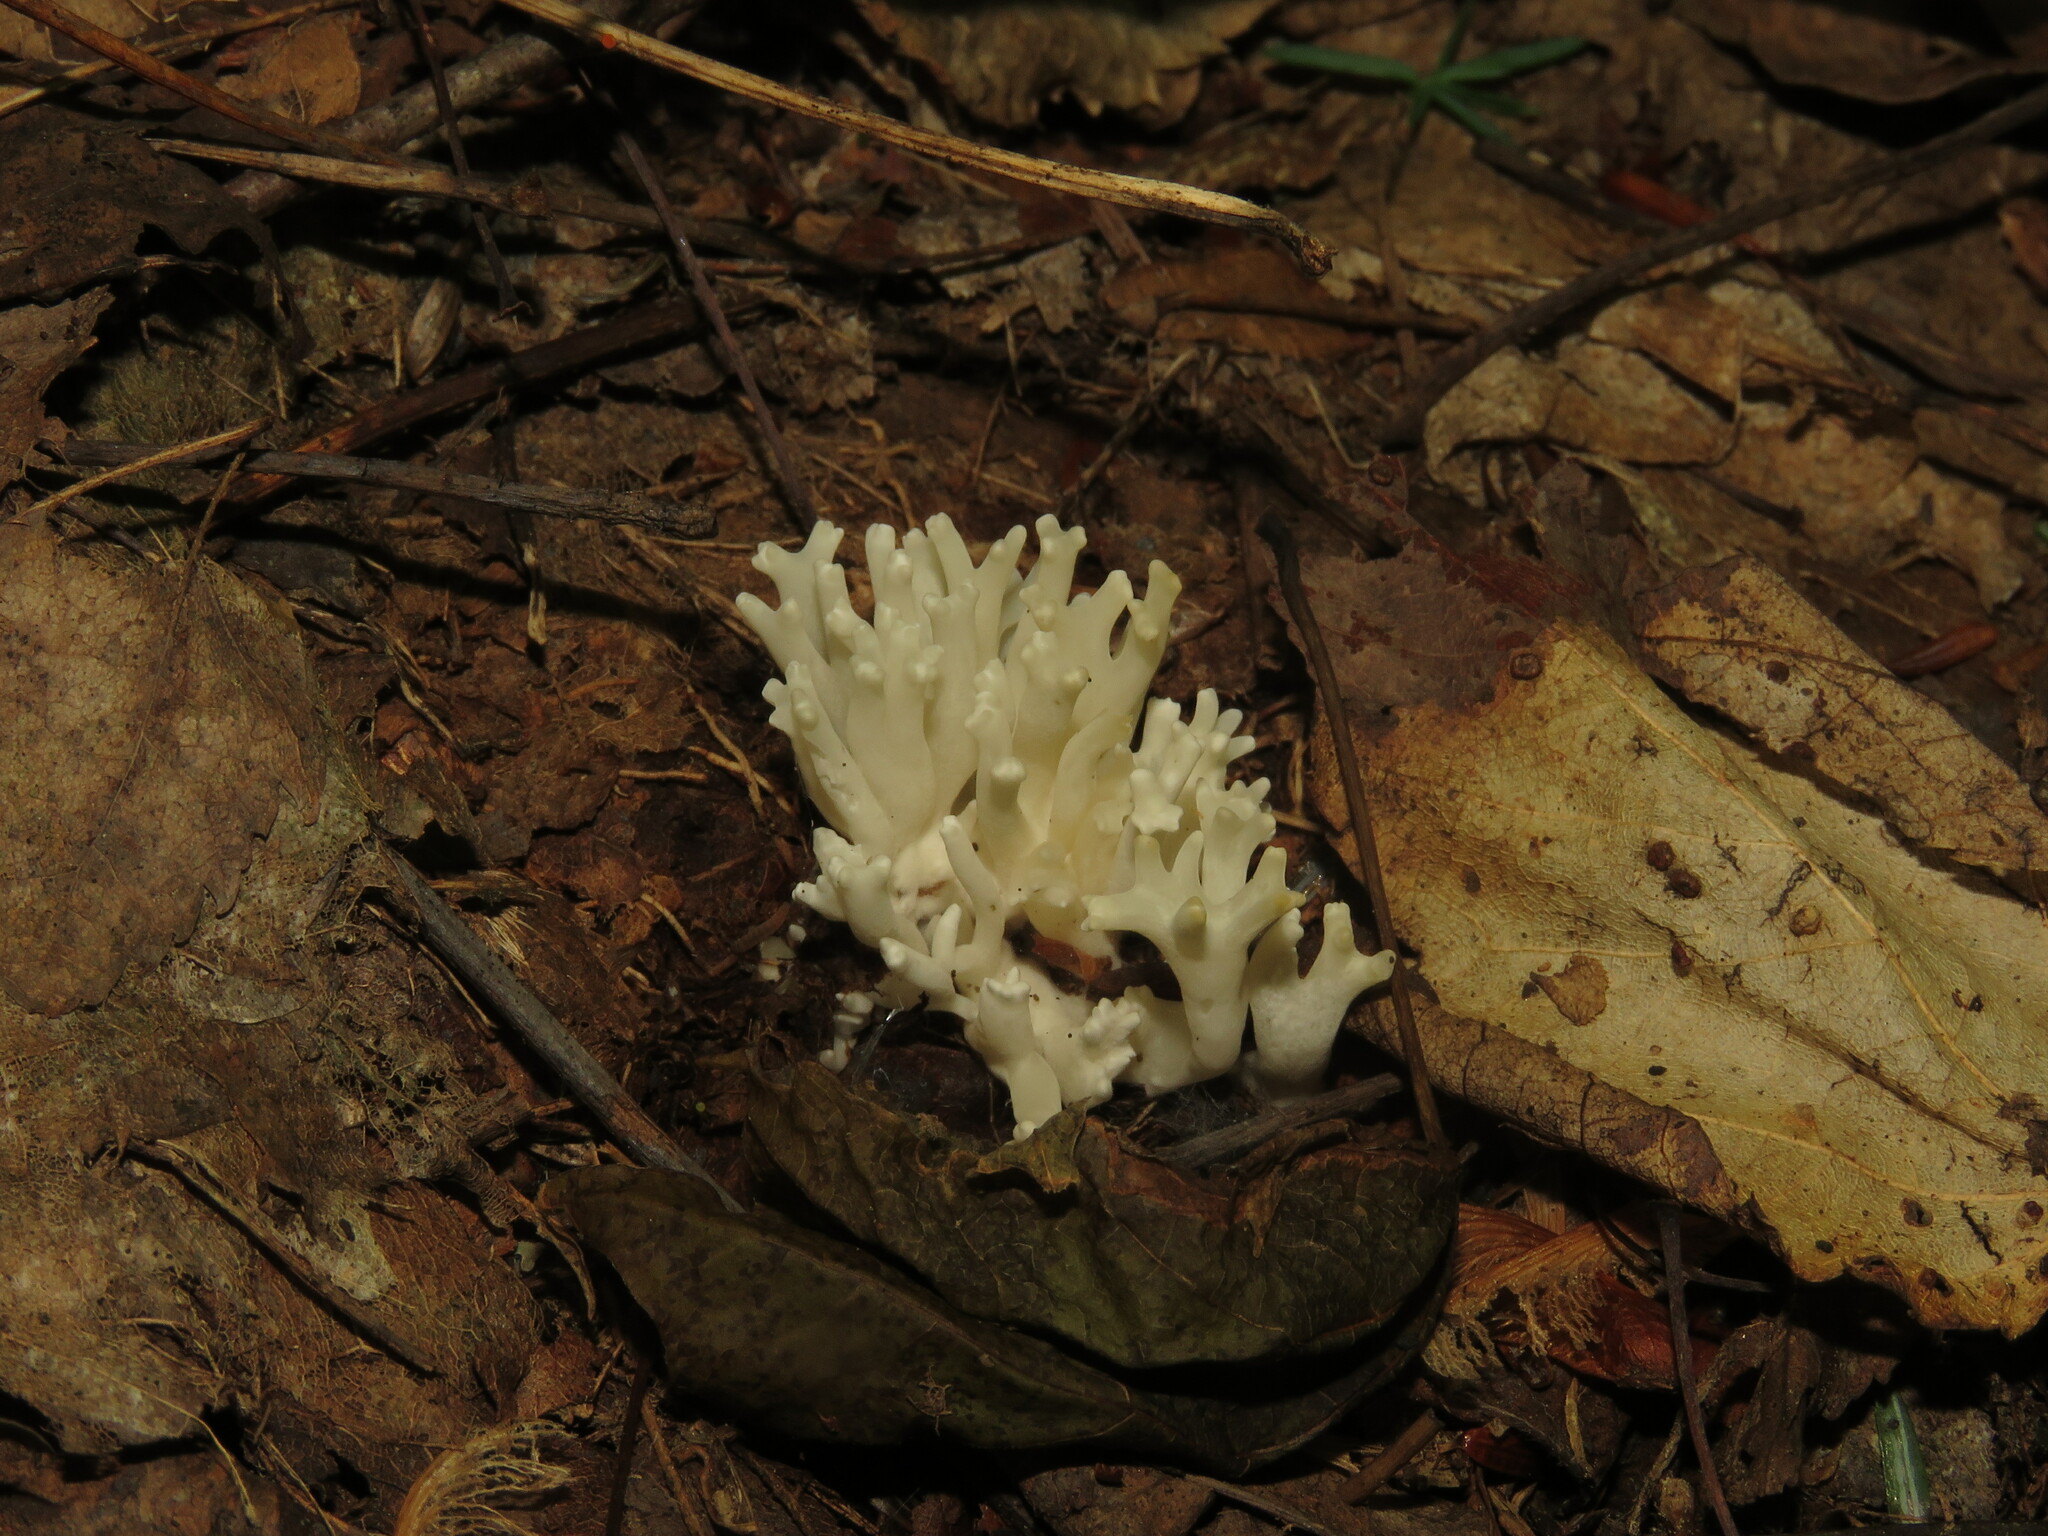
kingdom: Fungi
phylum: Basidiomycota
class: Agaricomycetes
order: Agaricales
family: Clavariaceae
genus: Ramariopsis
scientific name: Ramariopsis kunzei
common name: Ivory coral
